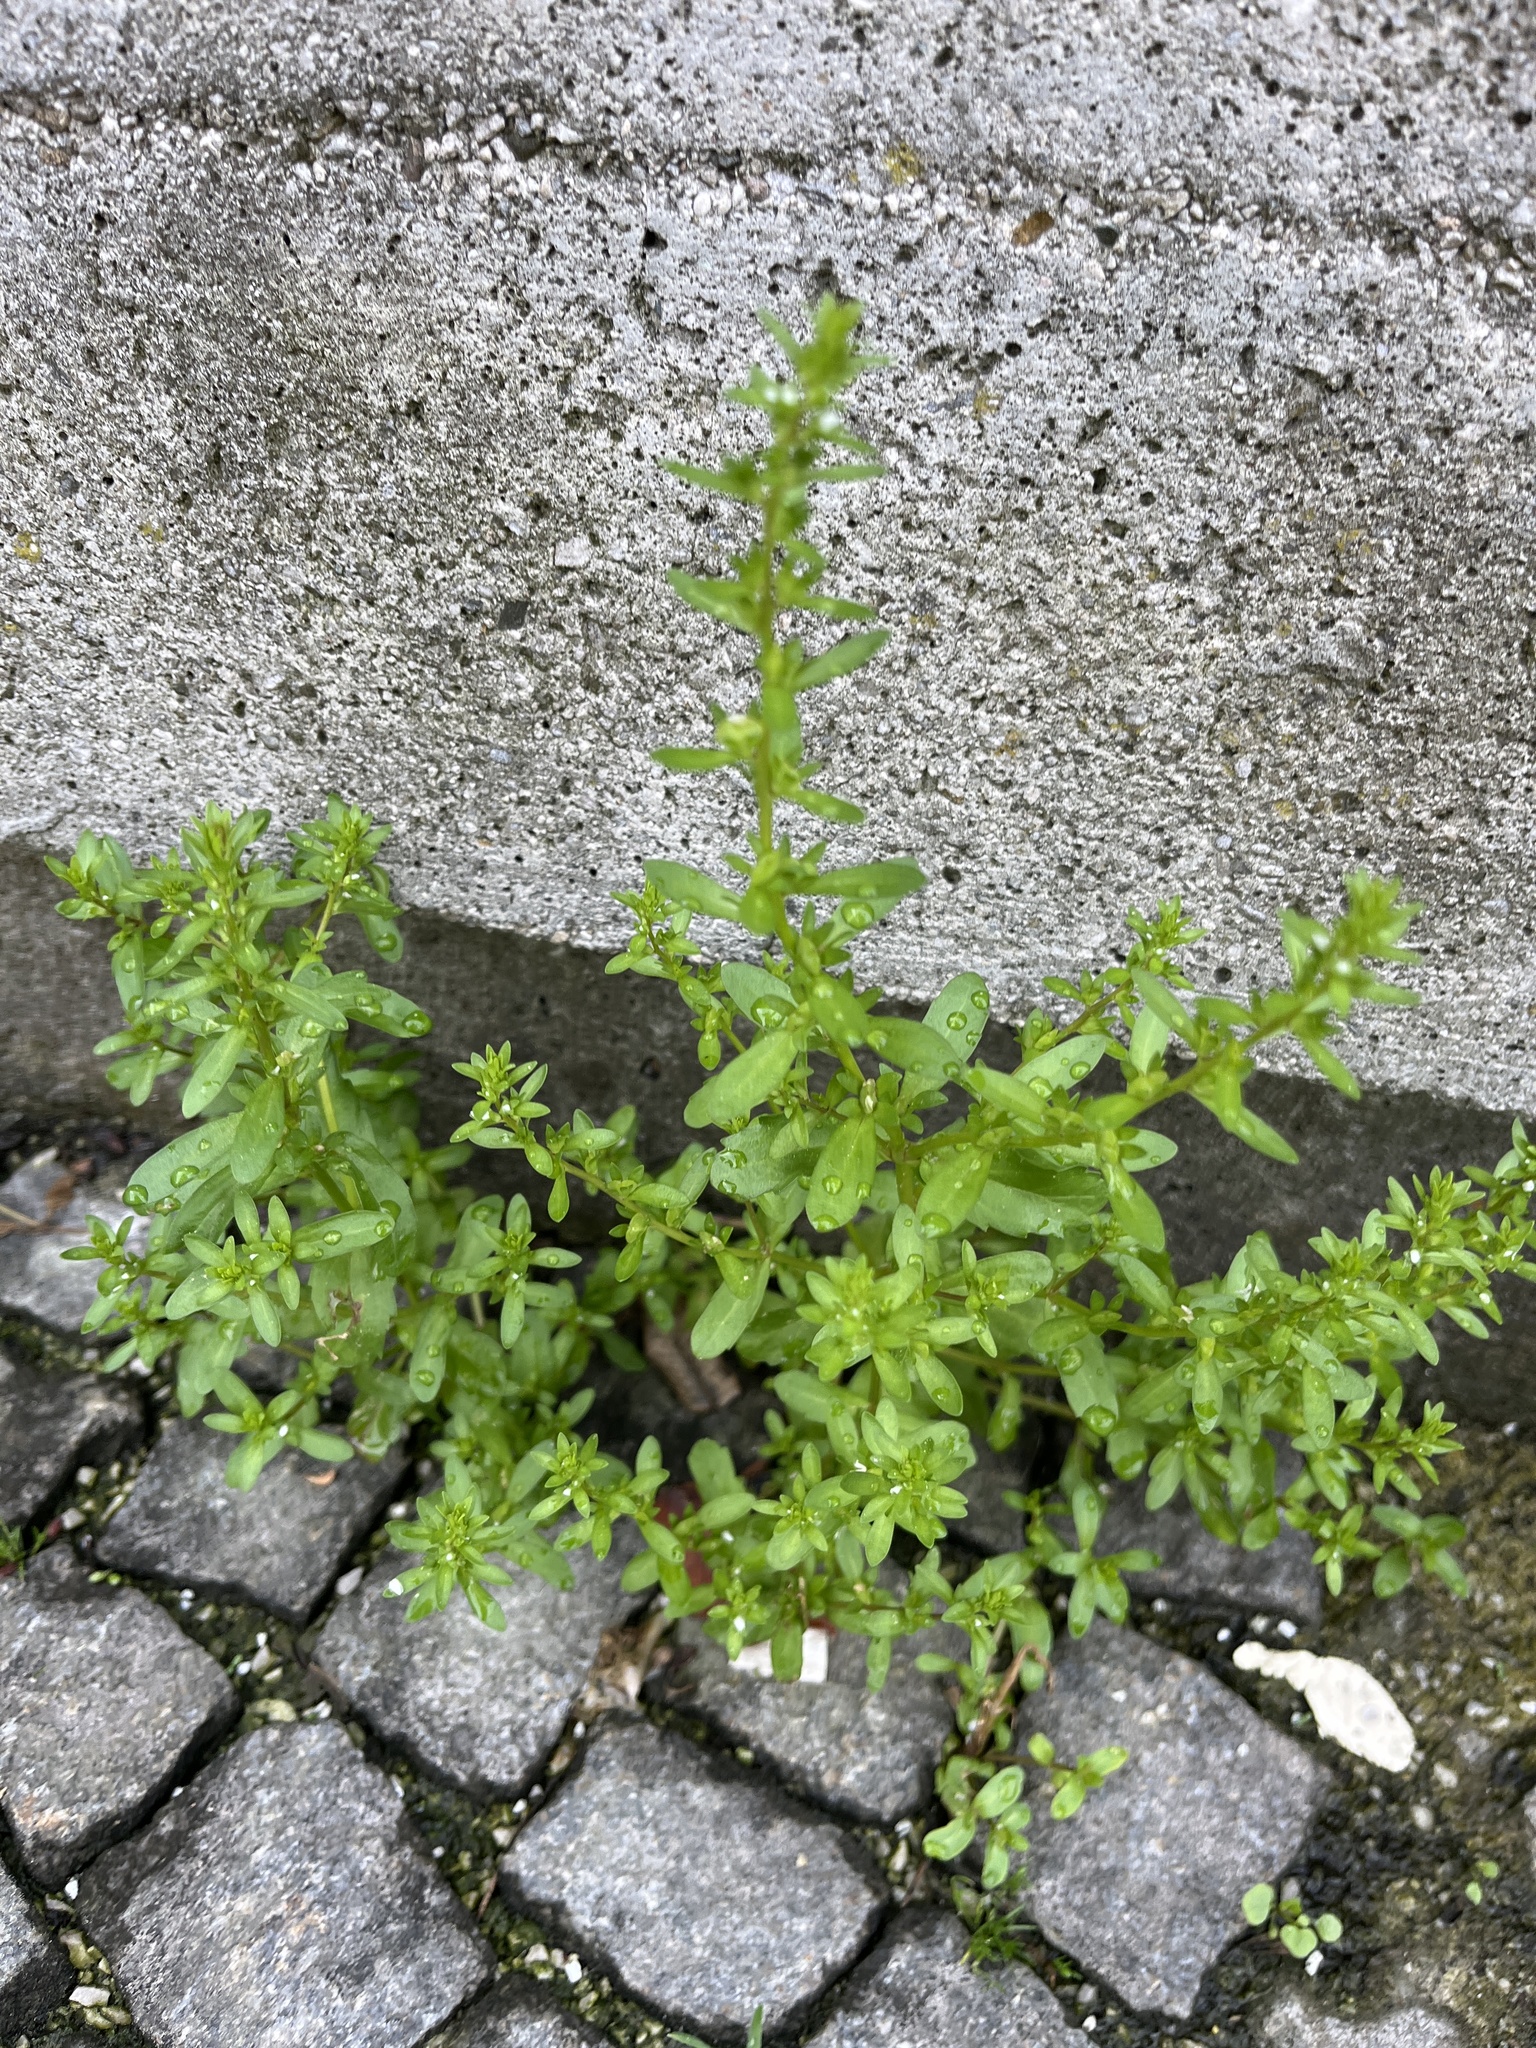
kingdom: Plantae
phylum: Tracheophyta
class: Magnoliopsida
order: Lamiales
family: Plantaginaceae
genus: Veronica
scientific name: Veronica peregrina
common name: Neckweed
